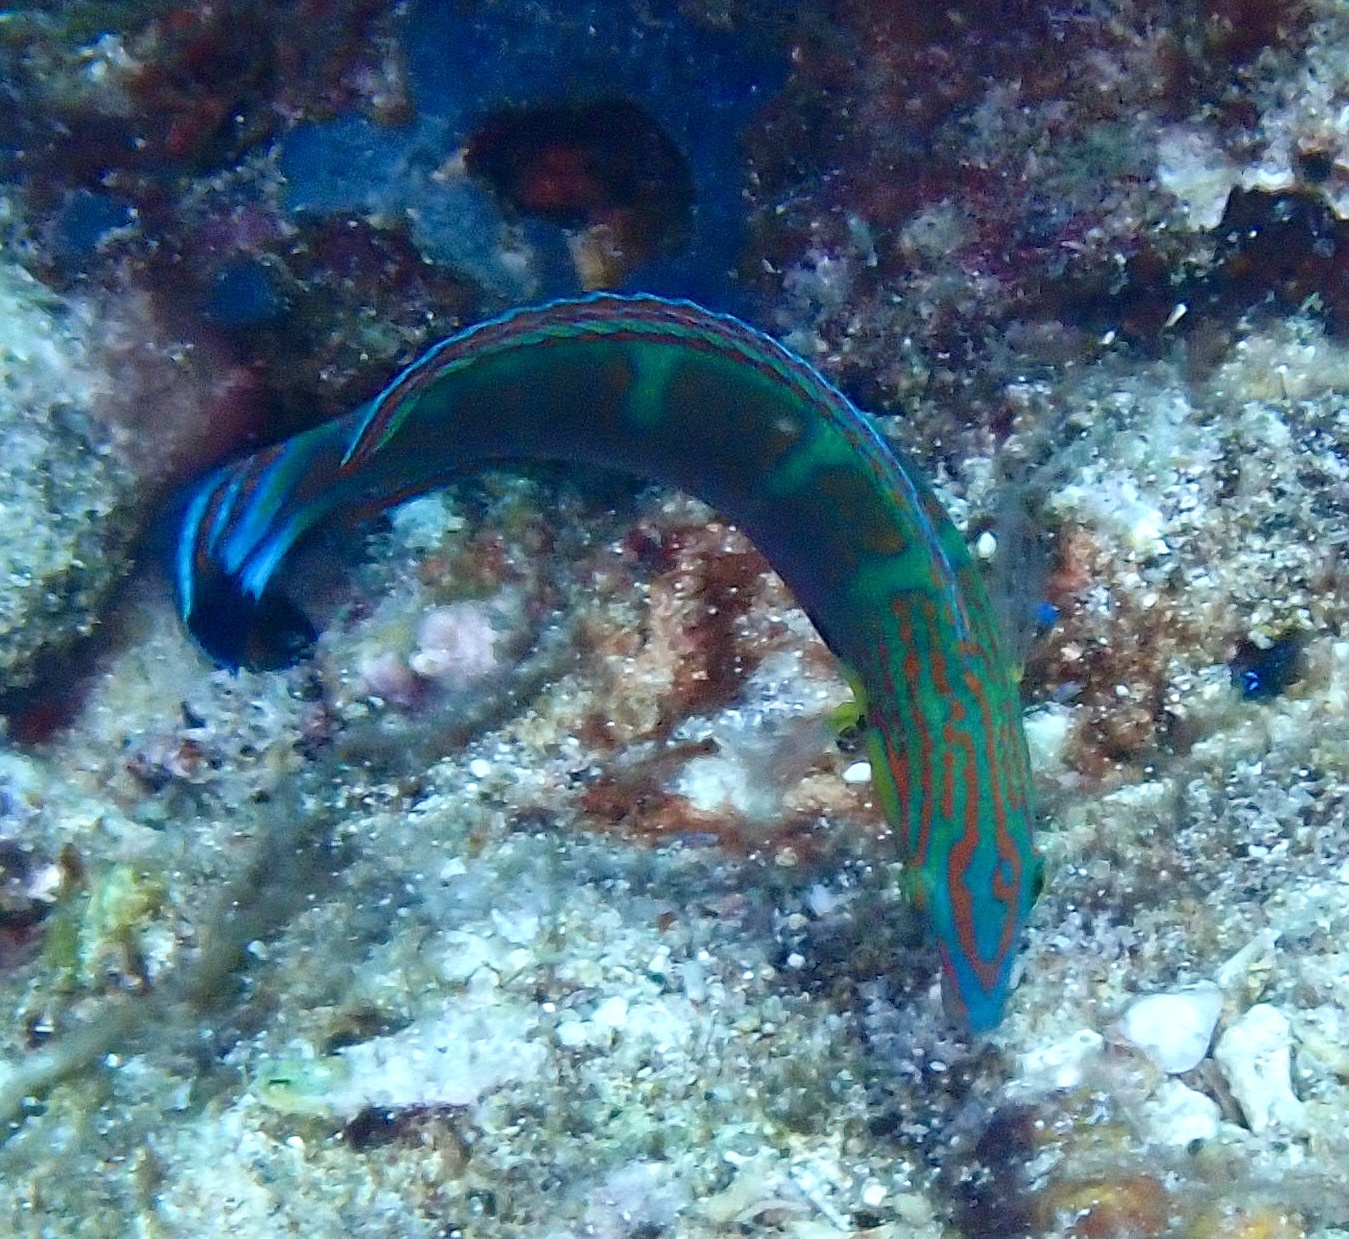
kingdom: Animalia
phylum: Chordata
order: Perciformes
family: Labridae
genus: Halichoeres
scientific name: Halichoeres melanurus
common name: Hoeven's wrasse
